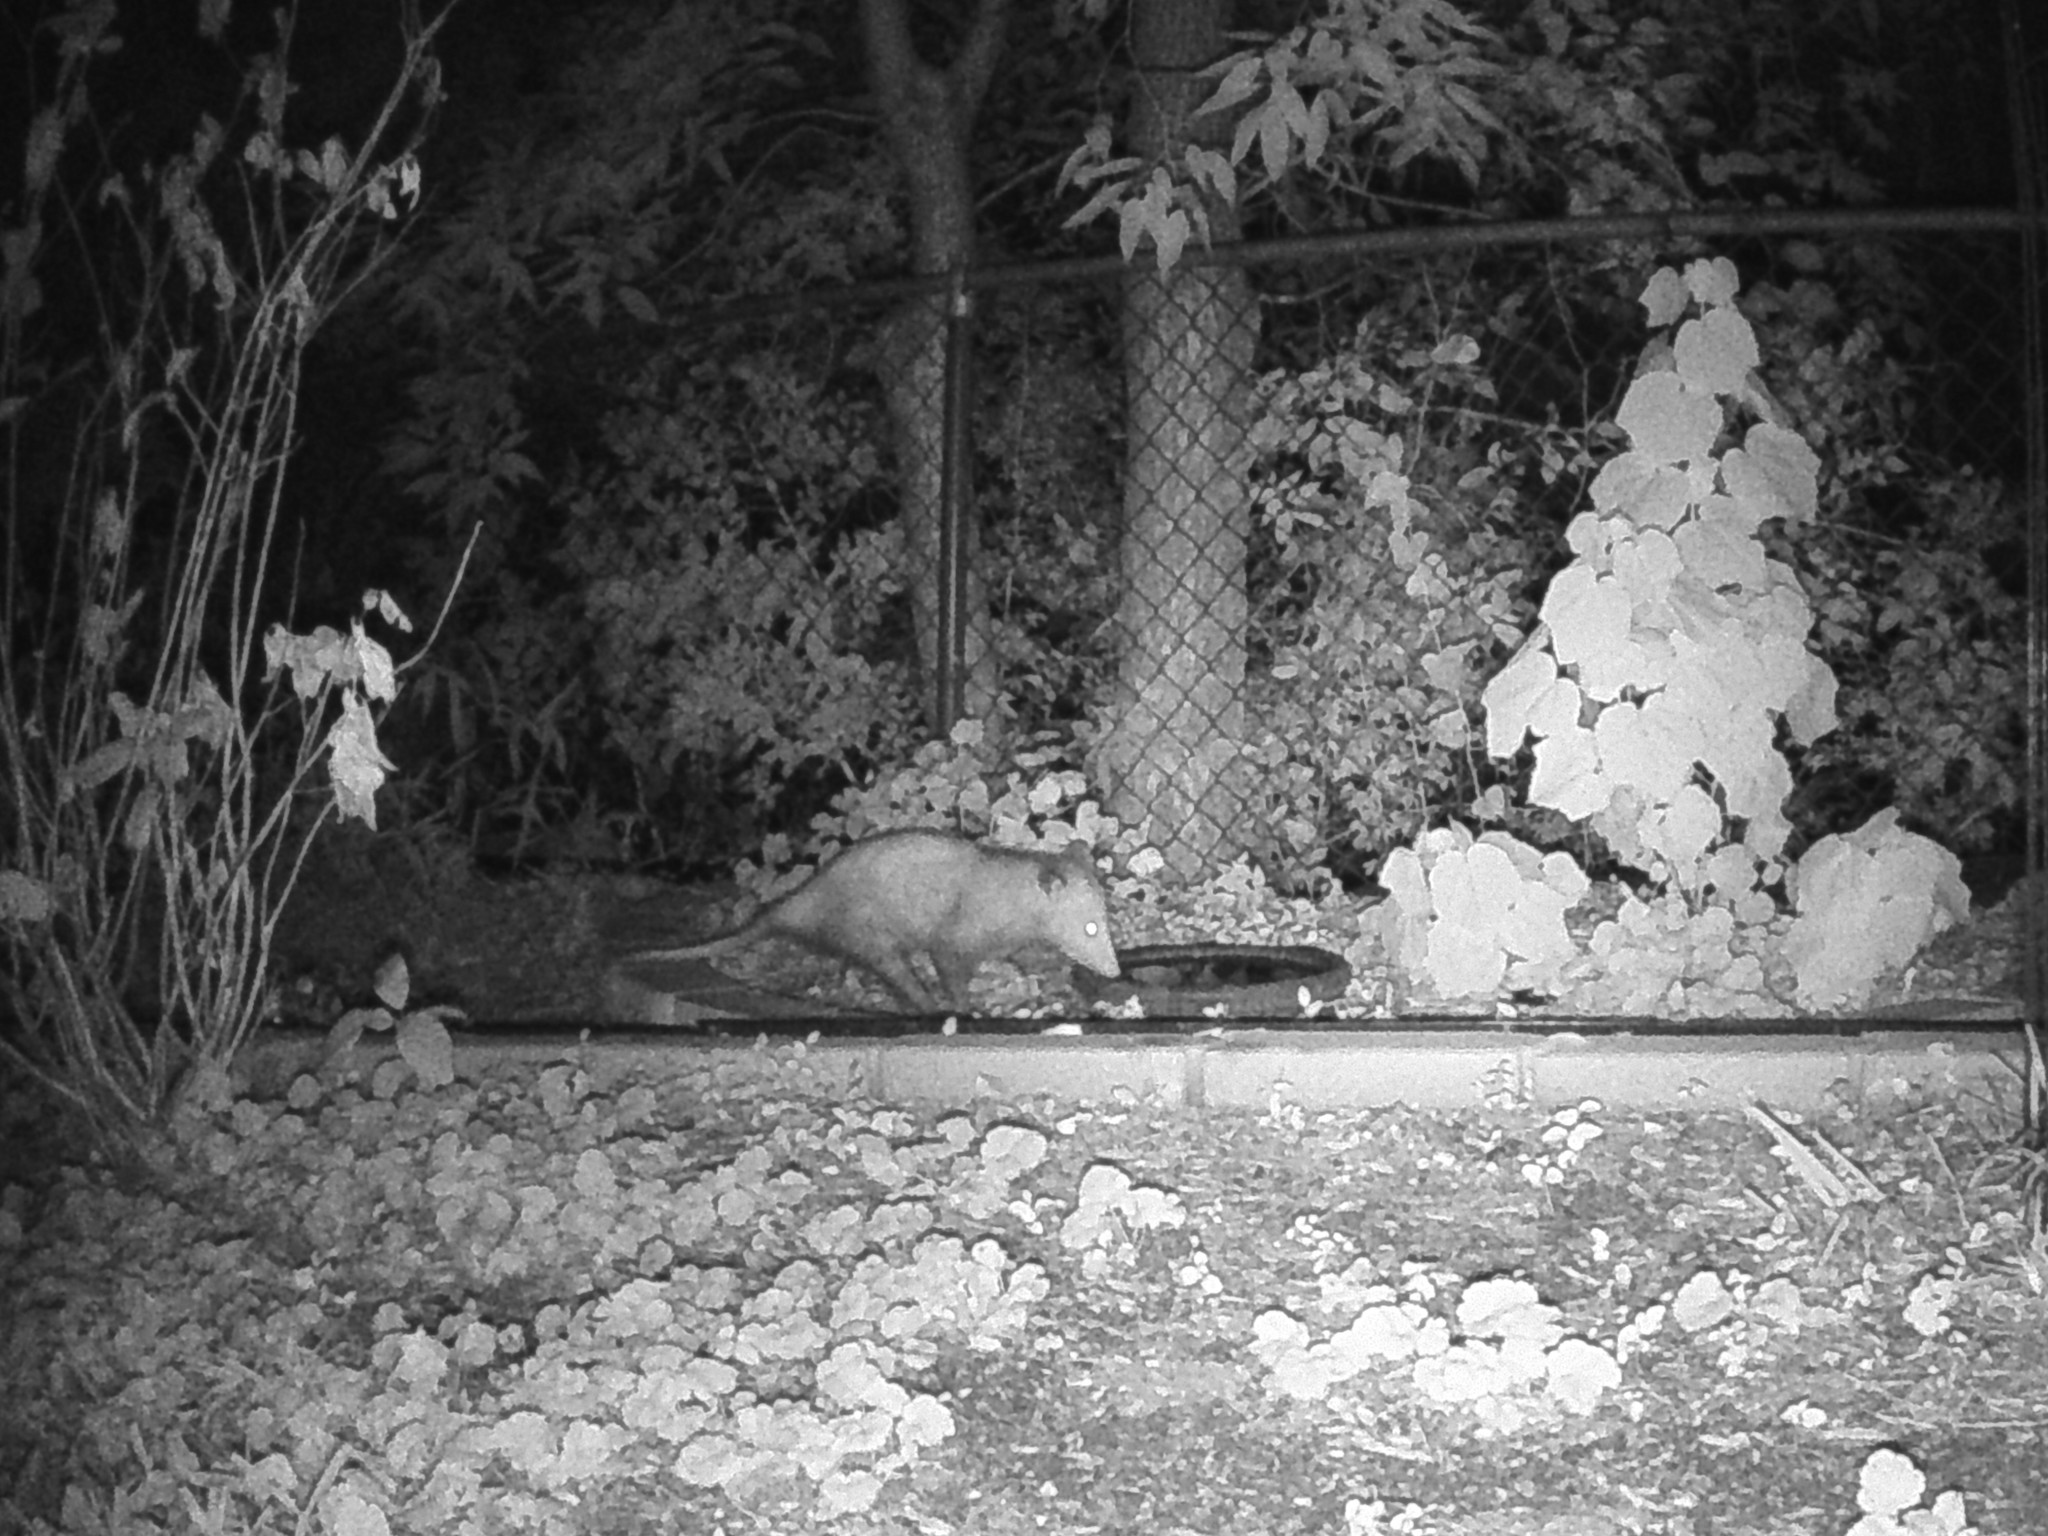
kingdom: Animalia
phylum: Chordata
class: Mammalia
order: Didelphimorphia
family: Didelphidae
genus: Didelphis
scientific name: Didelphis virginiana
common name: Virginia opossum
